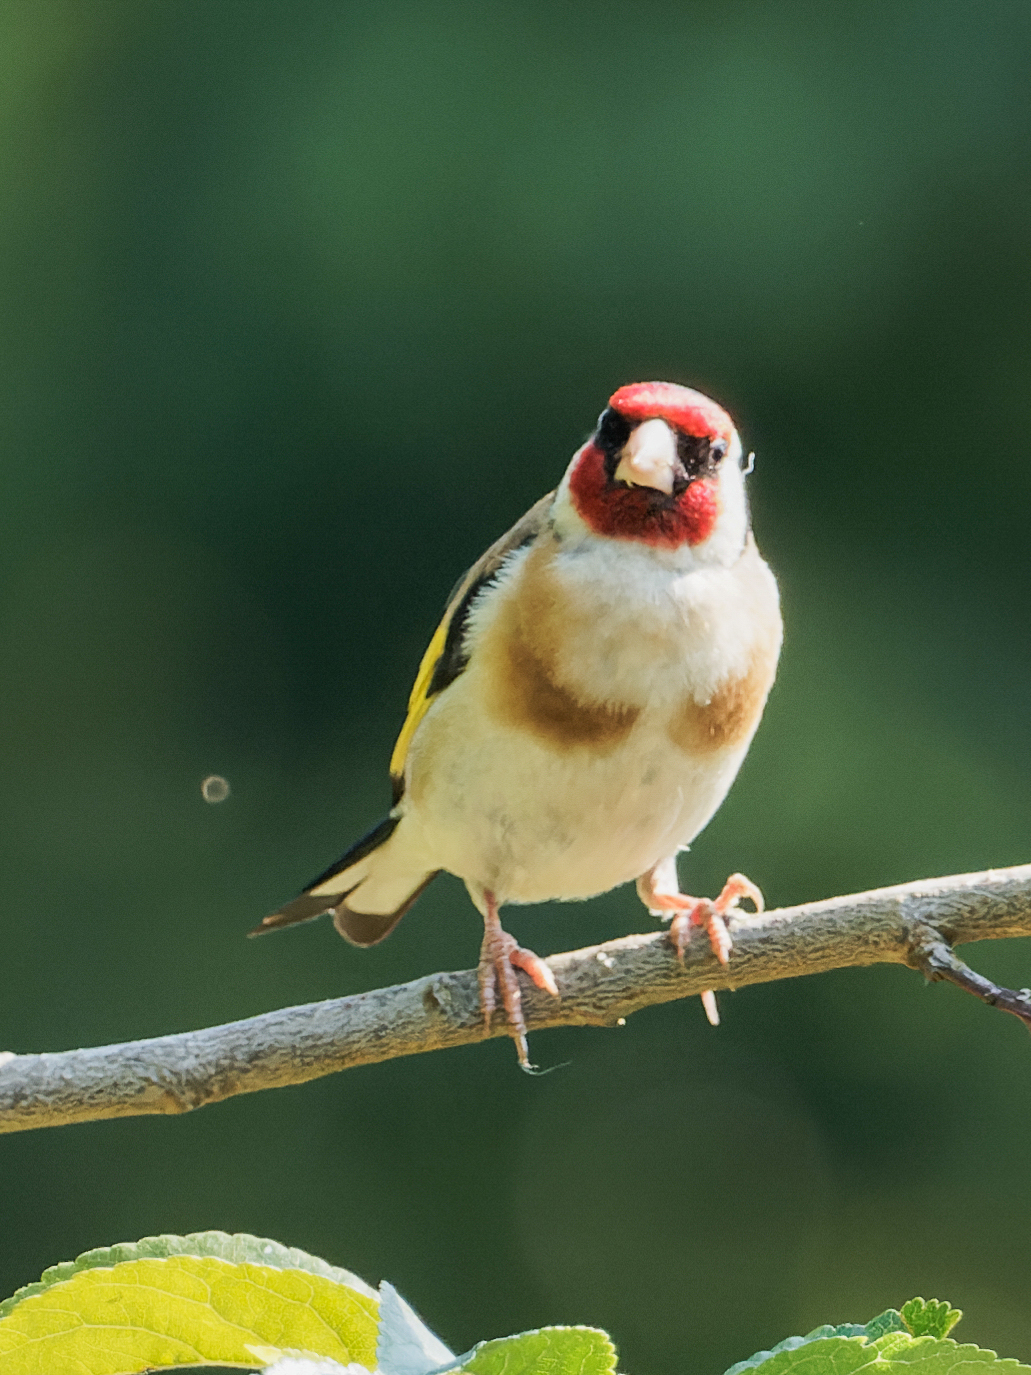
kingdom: Animalia
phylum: Chordata
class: Aves
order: Passeriformes
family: Fringillidae
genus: Carduelis
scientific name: Carduelis carduelis
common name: European goldfinch
